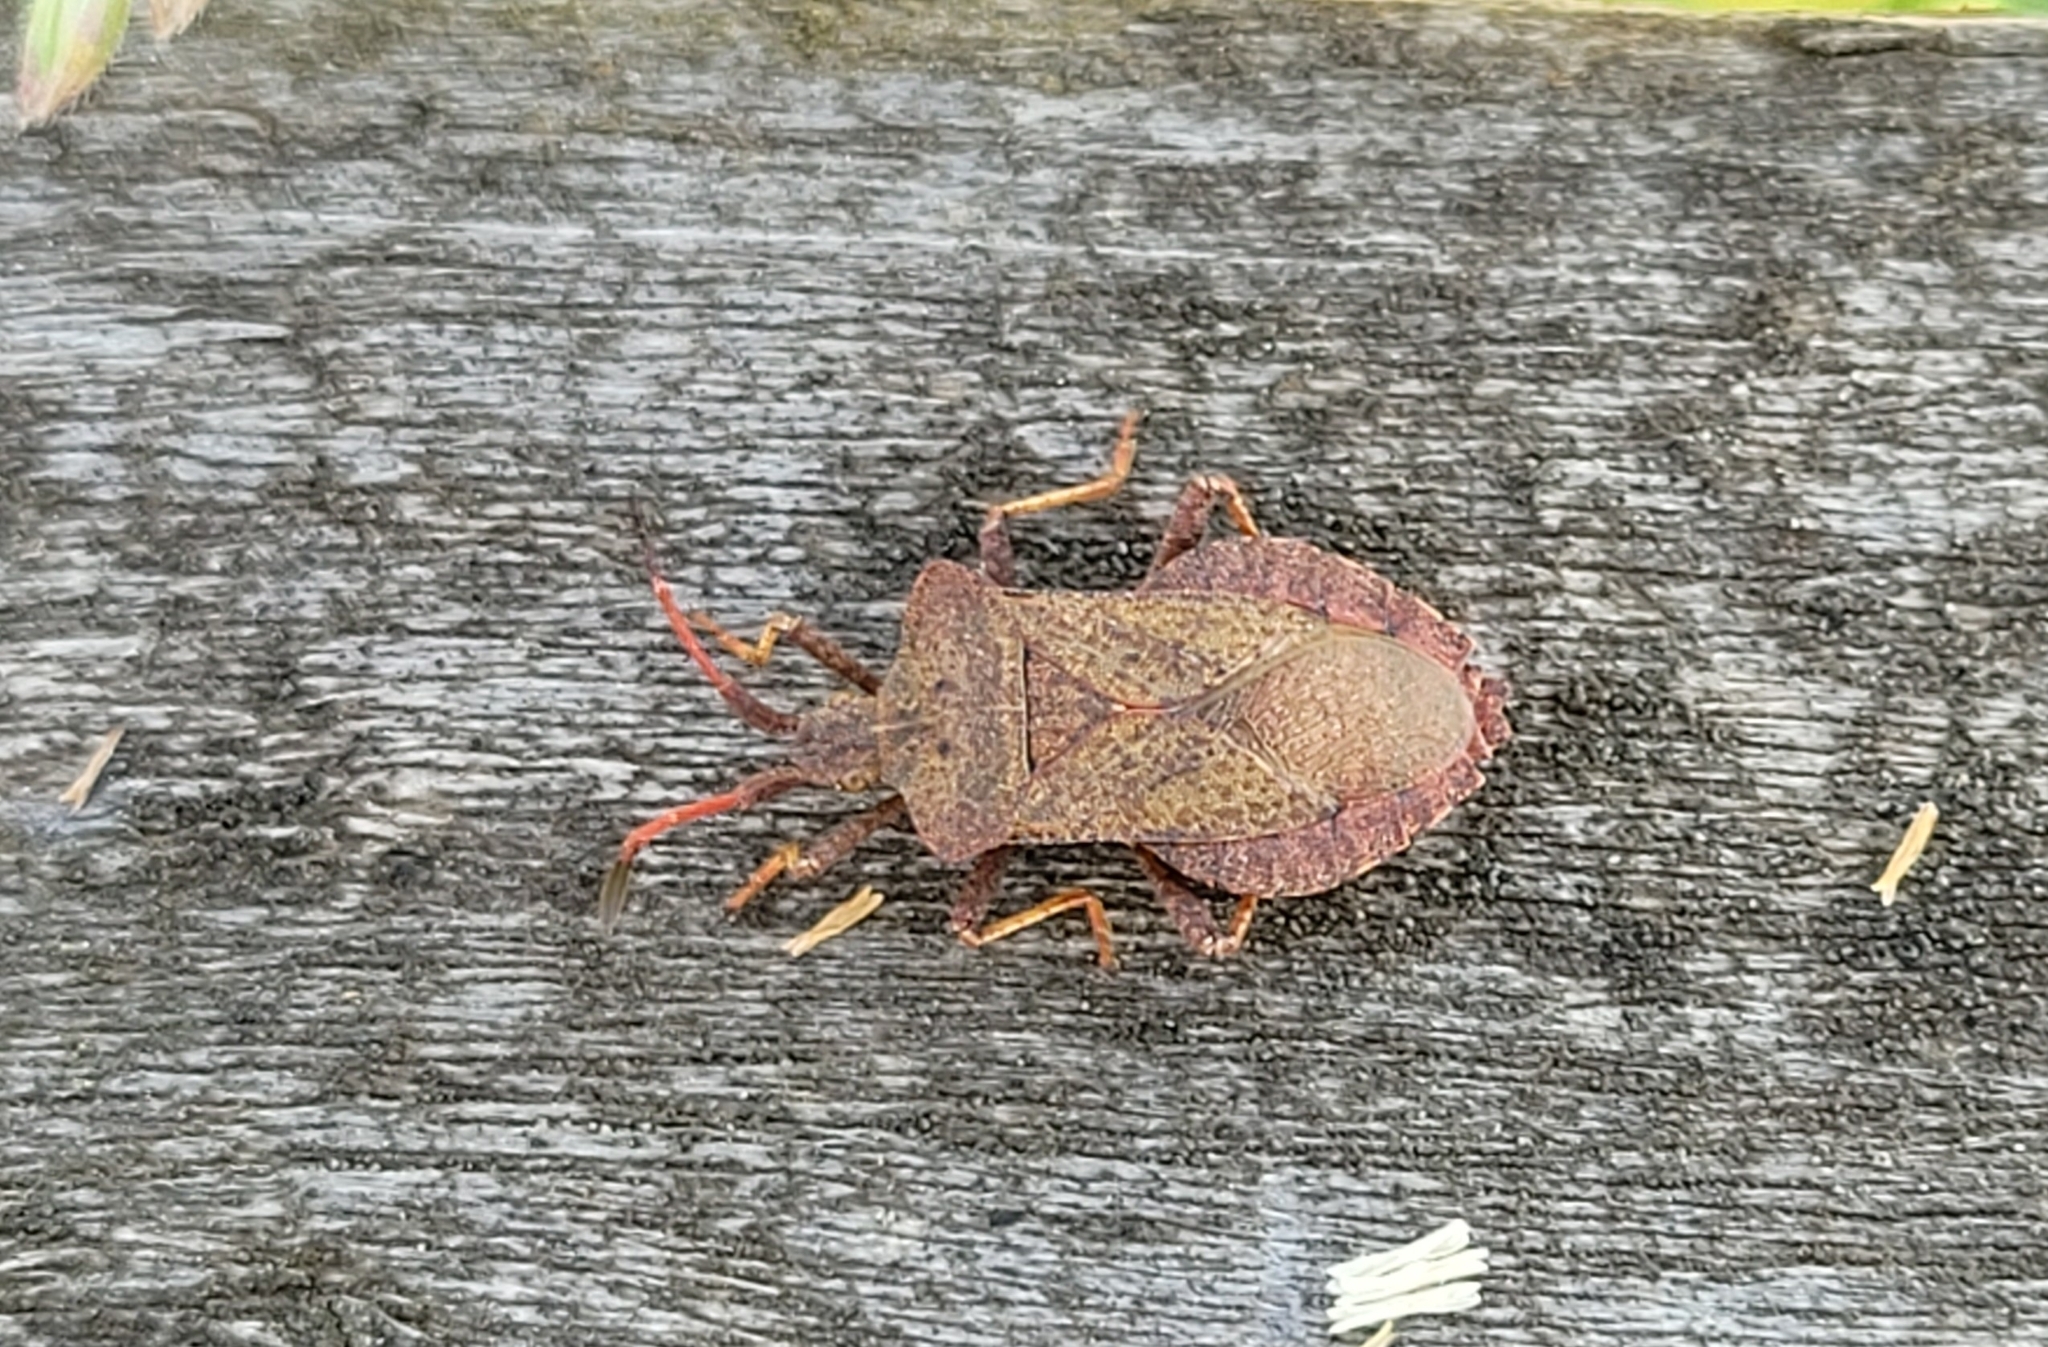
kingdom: Animalia
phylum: Arthropoda
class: Insecta
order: Hemiptera
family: Coreidae
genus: Coreus
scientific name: Coreus marginatus
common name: Dock bug
